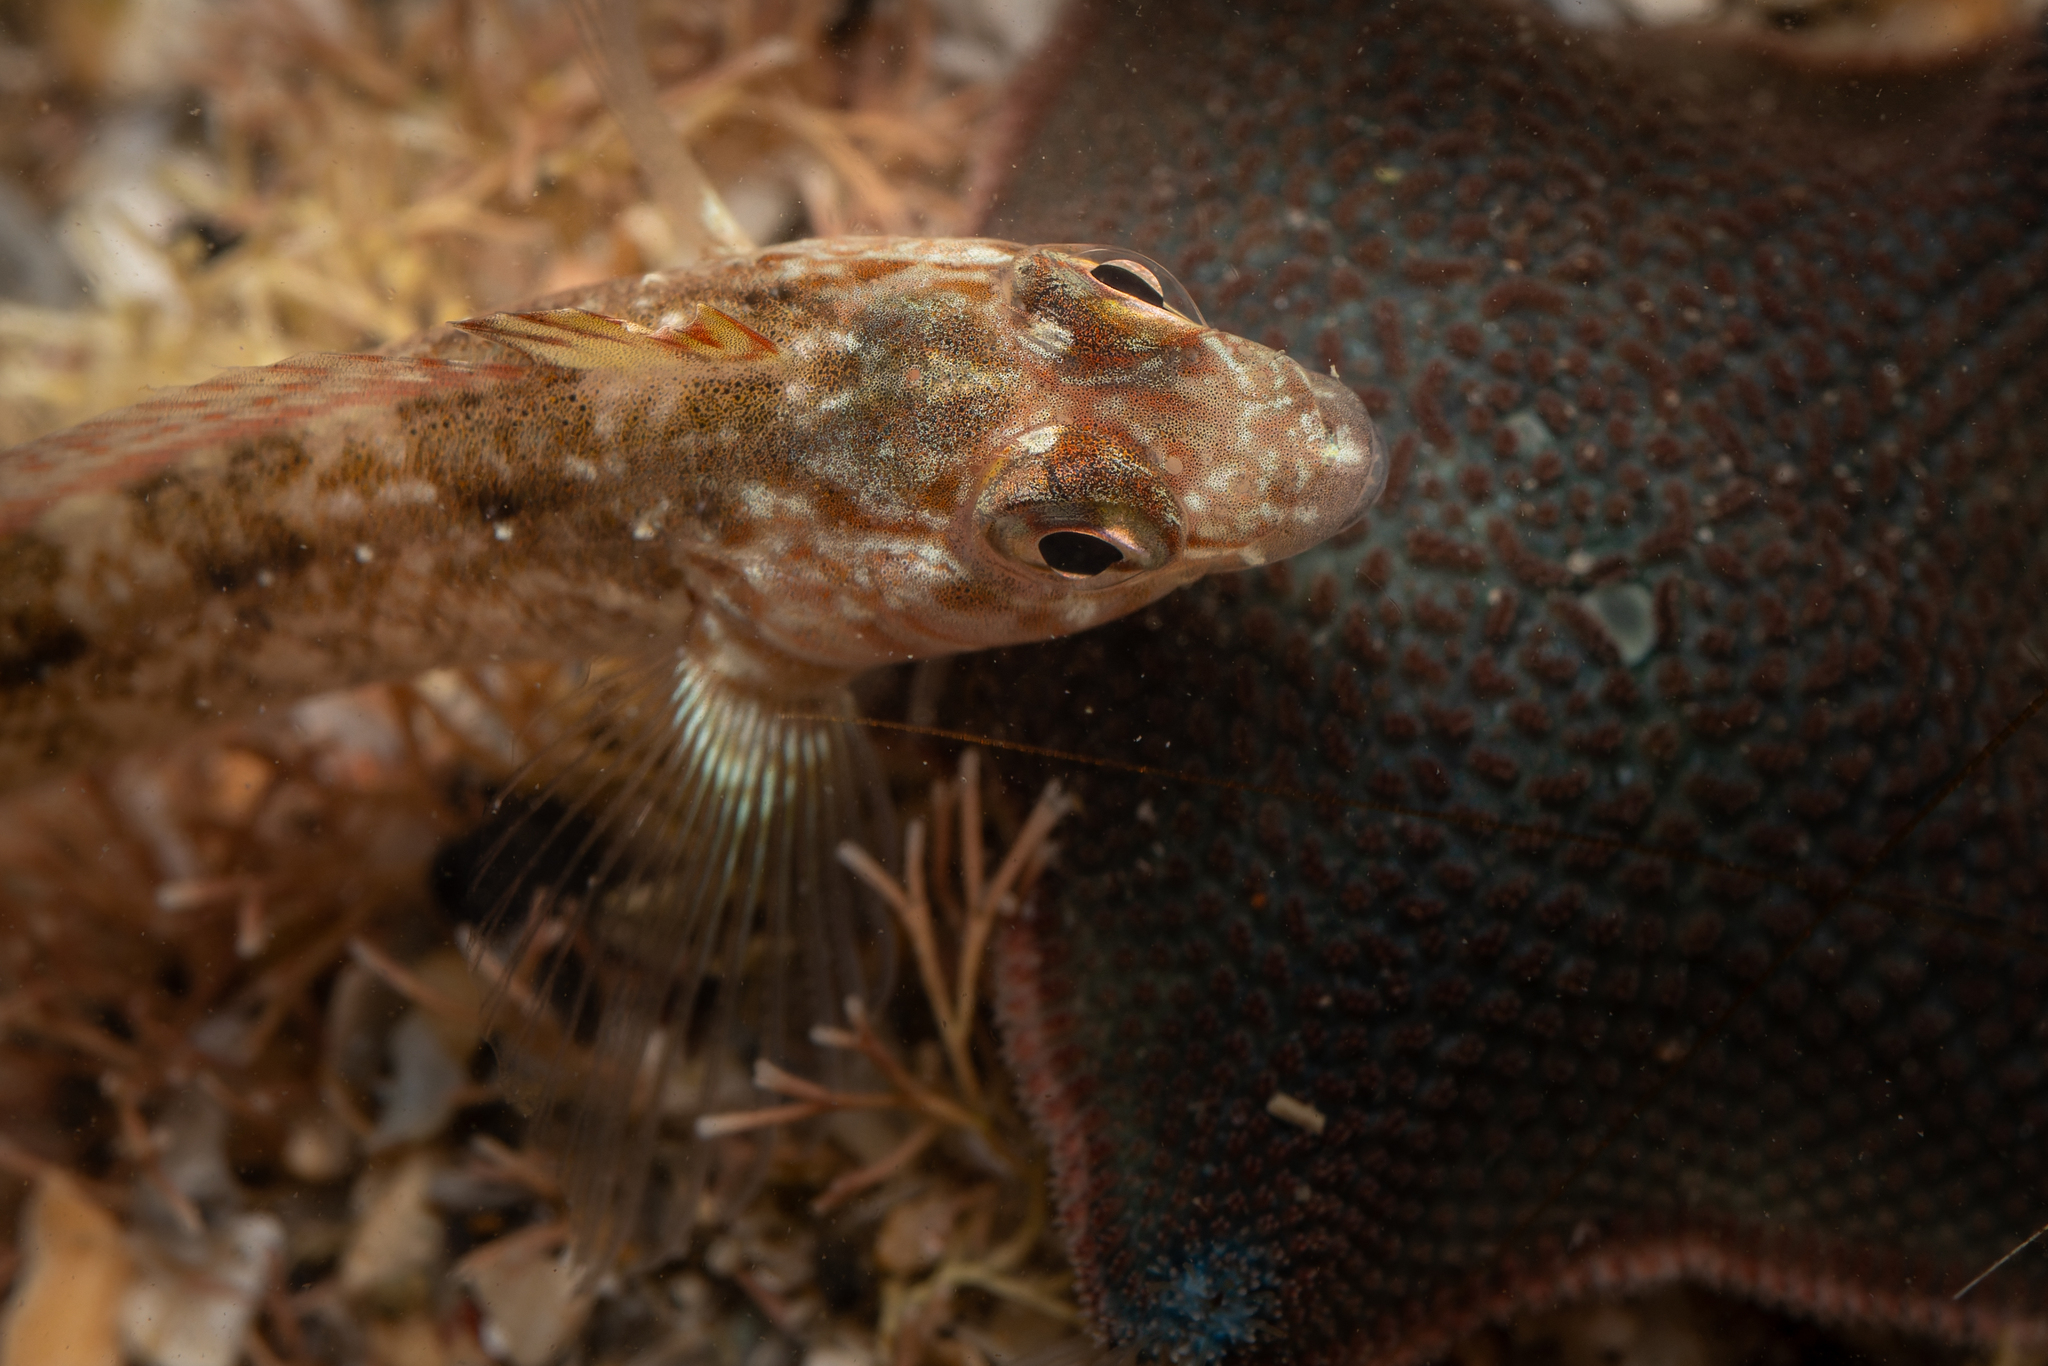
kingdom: Animalia
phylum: Chordata
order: Perciformes
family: Tripterygiidae
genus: Forsterygion
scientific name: Forsterygion lapillum
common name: Common triplefin
